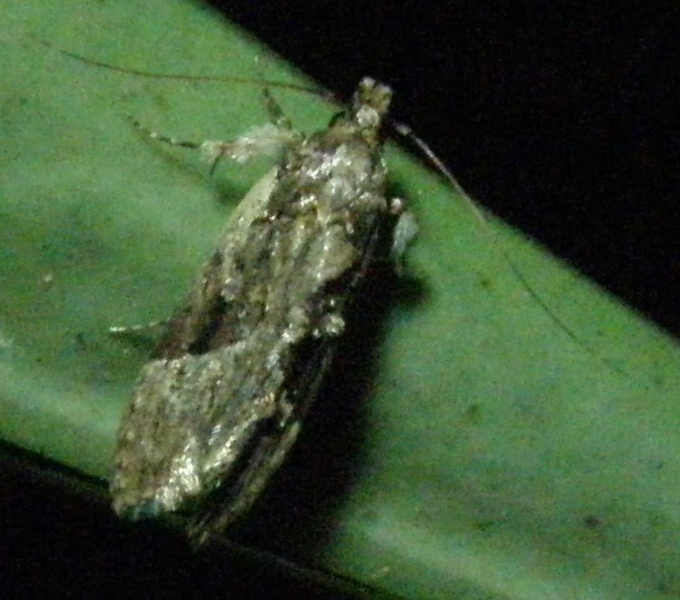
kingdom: Animalia
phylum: Arthropoda
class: Insecta
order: Lepidoptera
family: Cosmopterigidae
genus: Diplosara
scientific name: Diplosara lignivora
